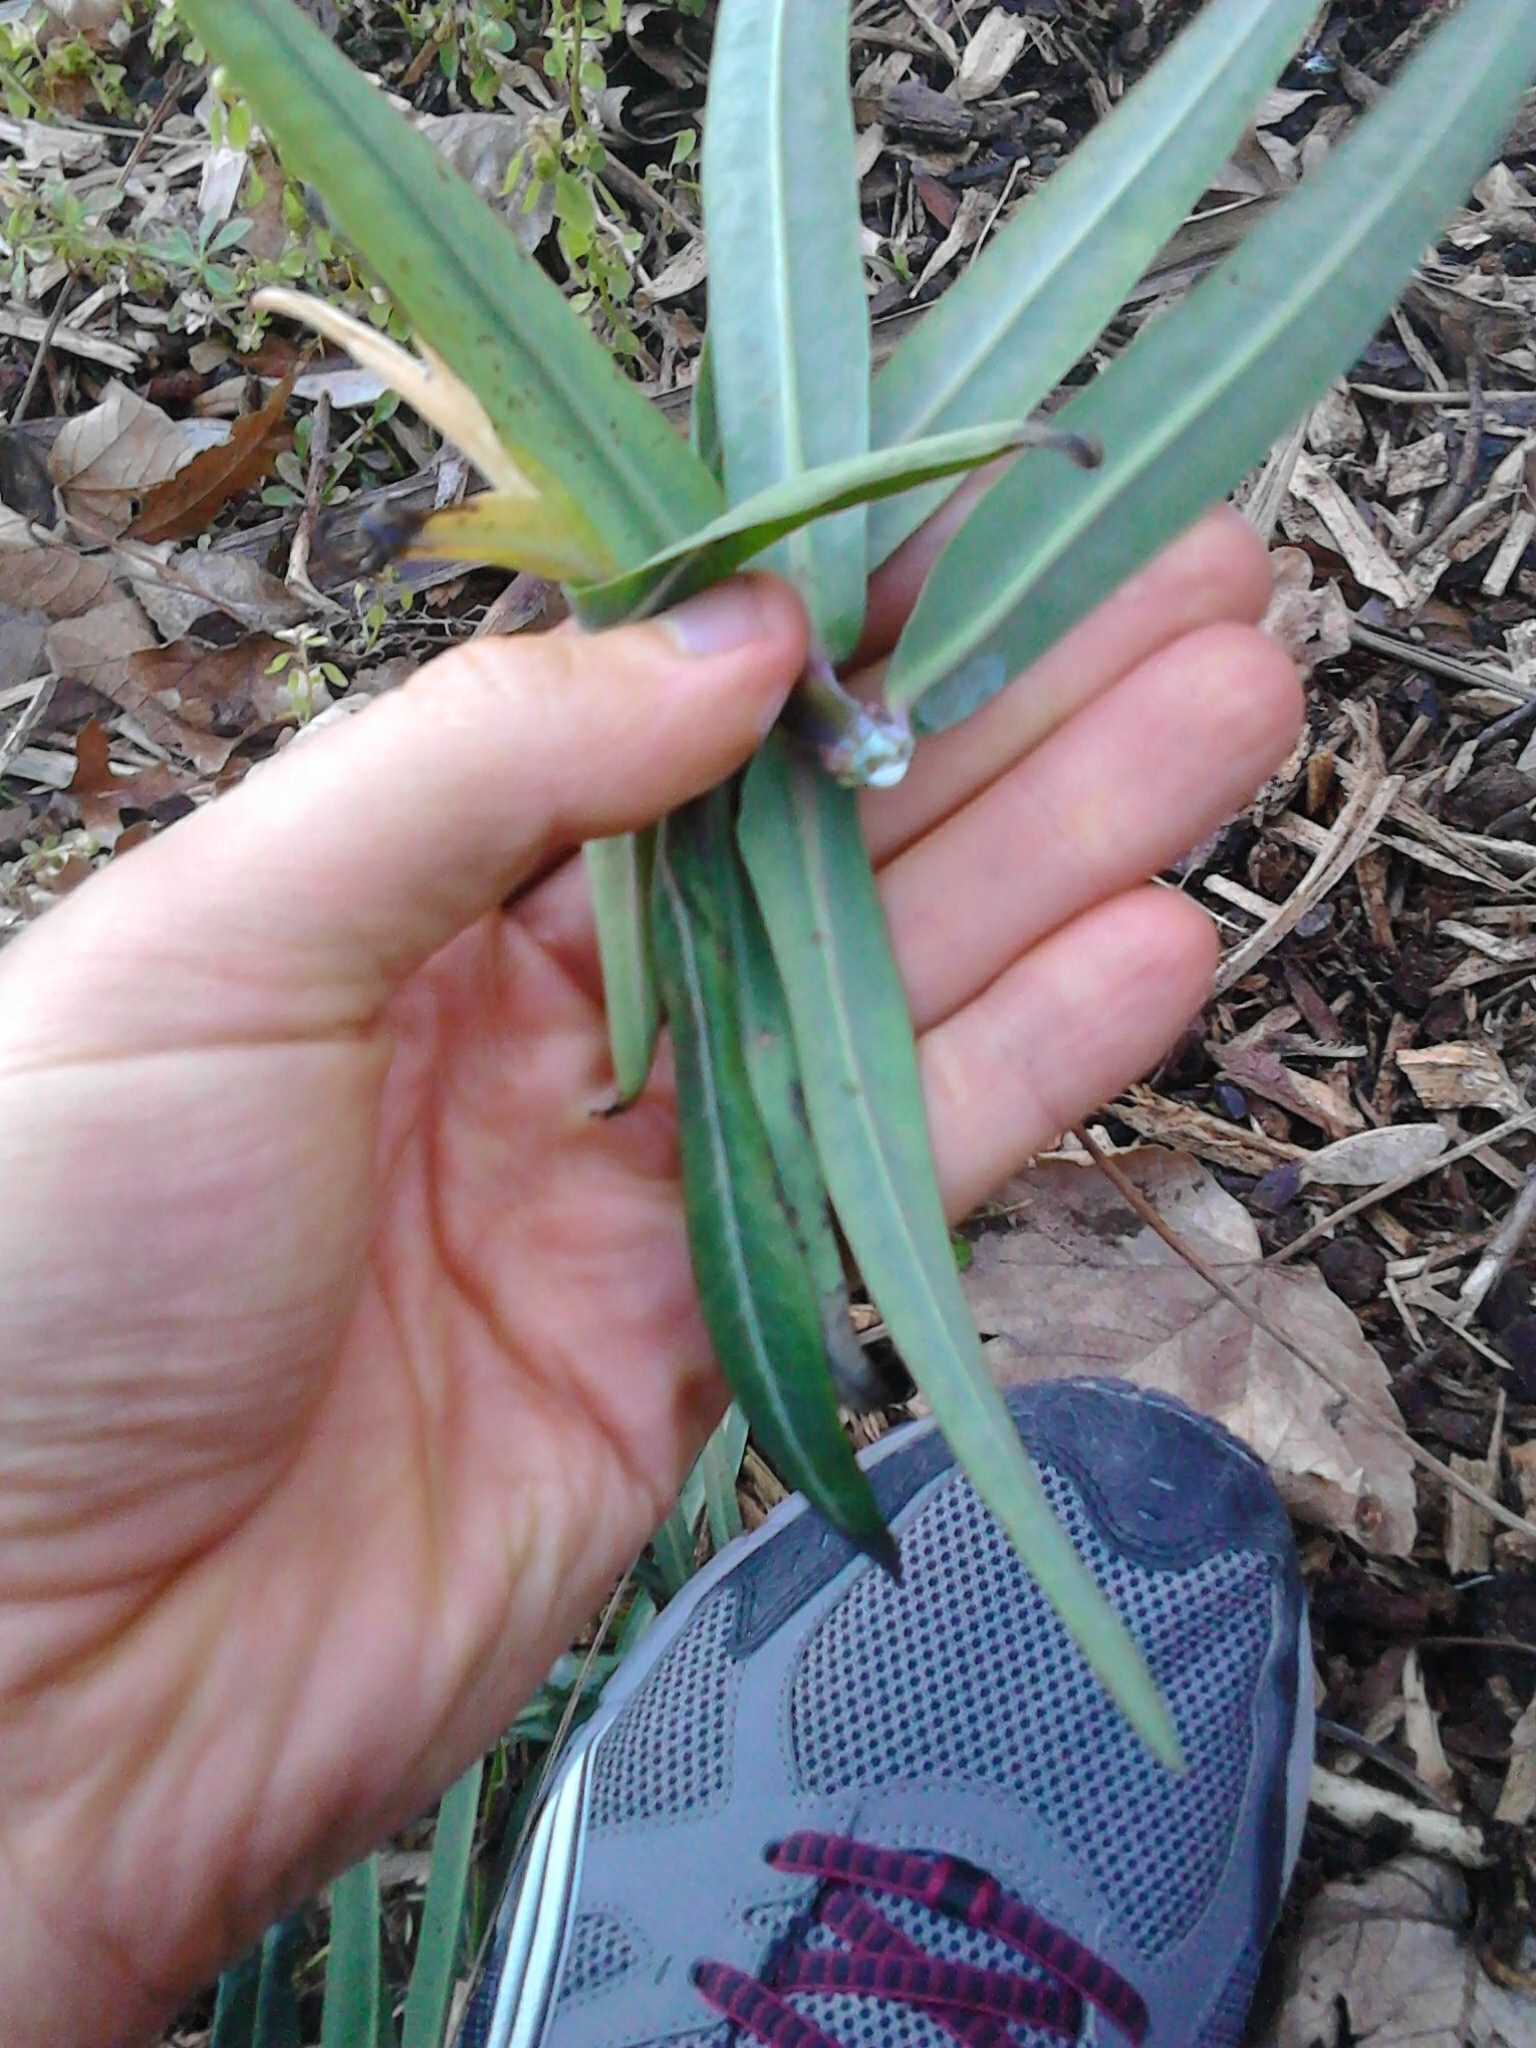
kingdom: Plantae
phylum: Tracheophyta
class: Magnoliopsida
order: Malpighiales
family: Euphorbiaceae
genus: Euphorbia
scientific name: Euphorbia lathyris
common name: Caper spurge
